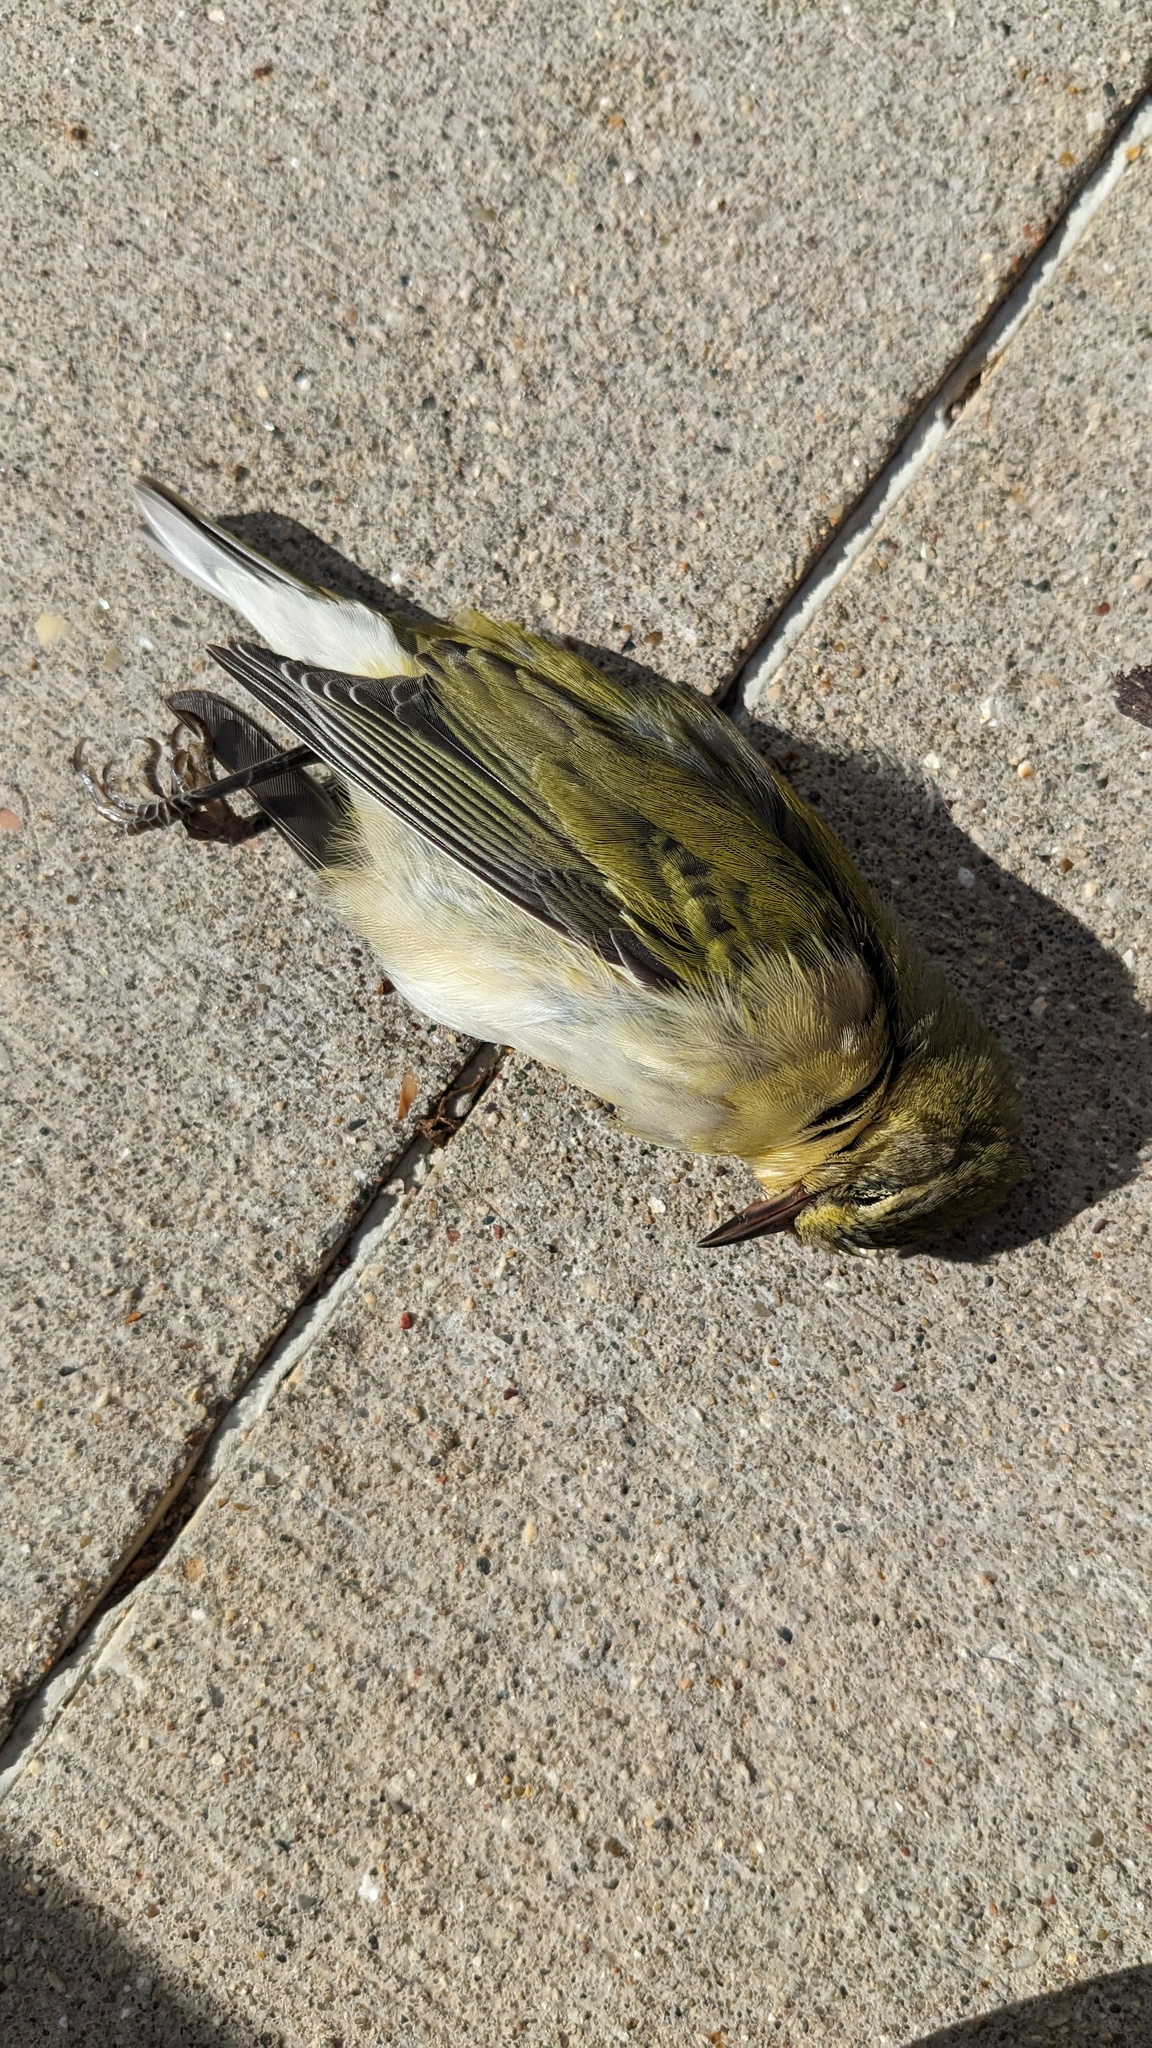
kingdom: Animalia
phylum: Chordata
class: Aves
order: Passeriformes
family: Parulidae
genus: Leiothlypis
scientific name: Leiothlypis peregrina
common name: Tennessee warbler
